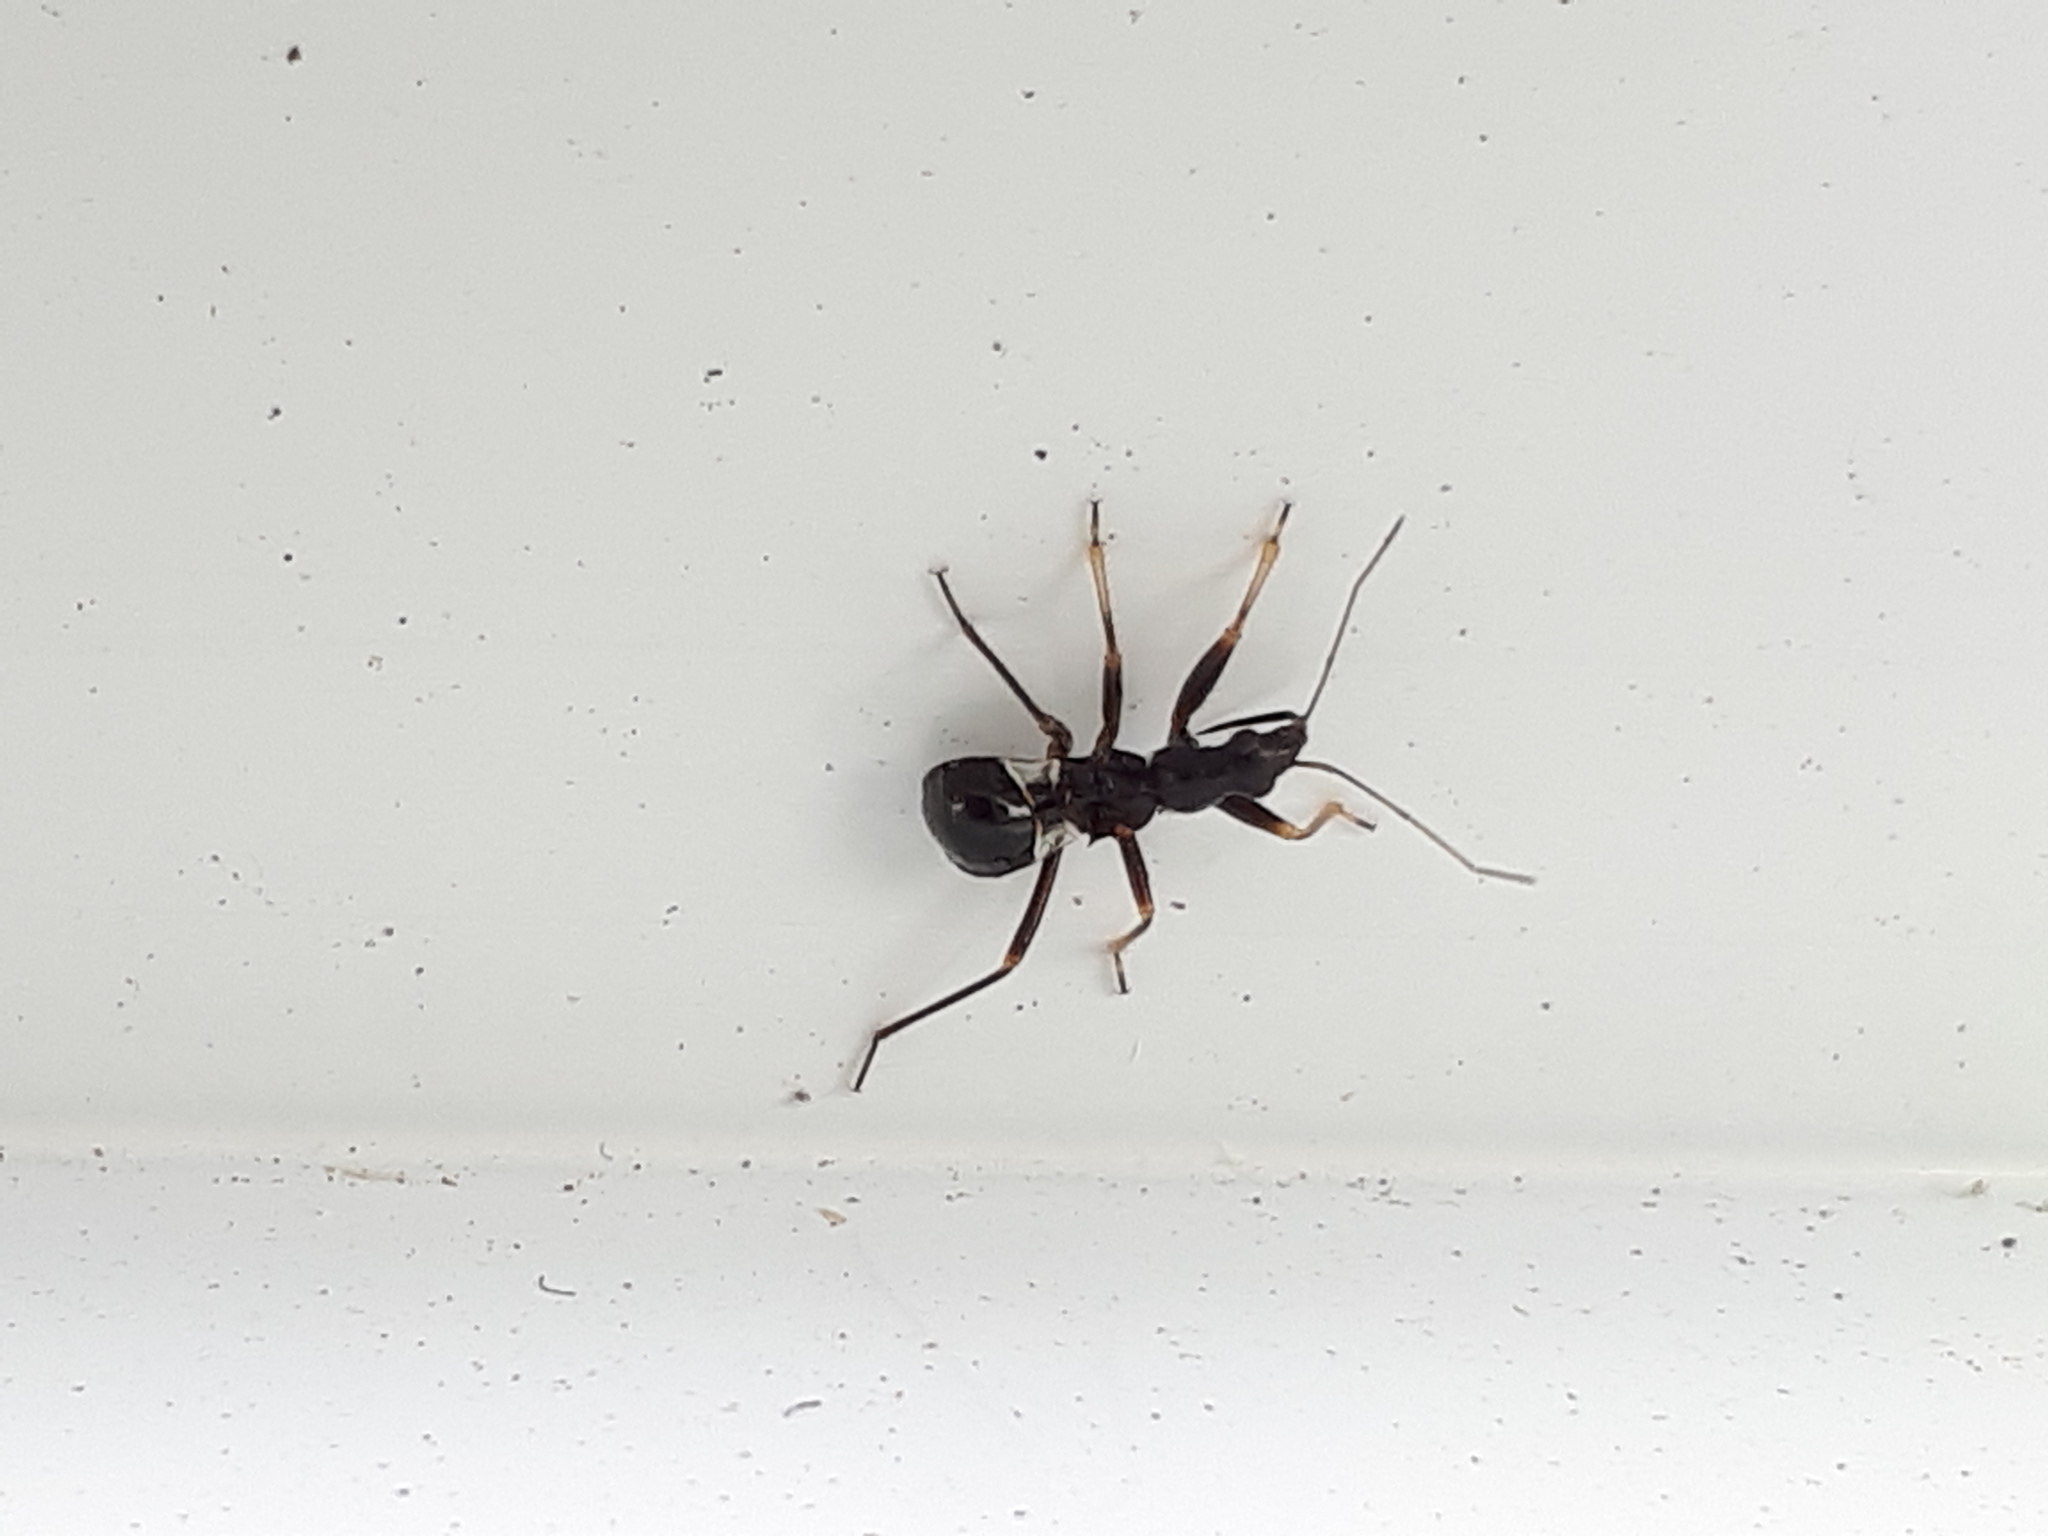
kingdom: Animalia
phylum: Arthropoda
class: Insecta
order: Hemiptera
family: Nabidae
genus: Himacerus
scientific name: Himacerus mirmicoides
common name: Ant damsel bug
